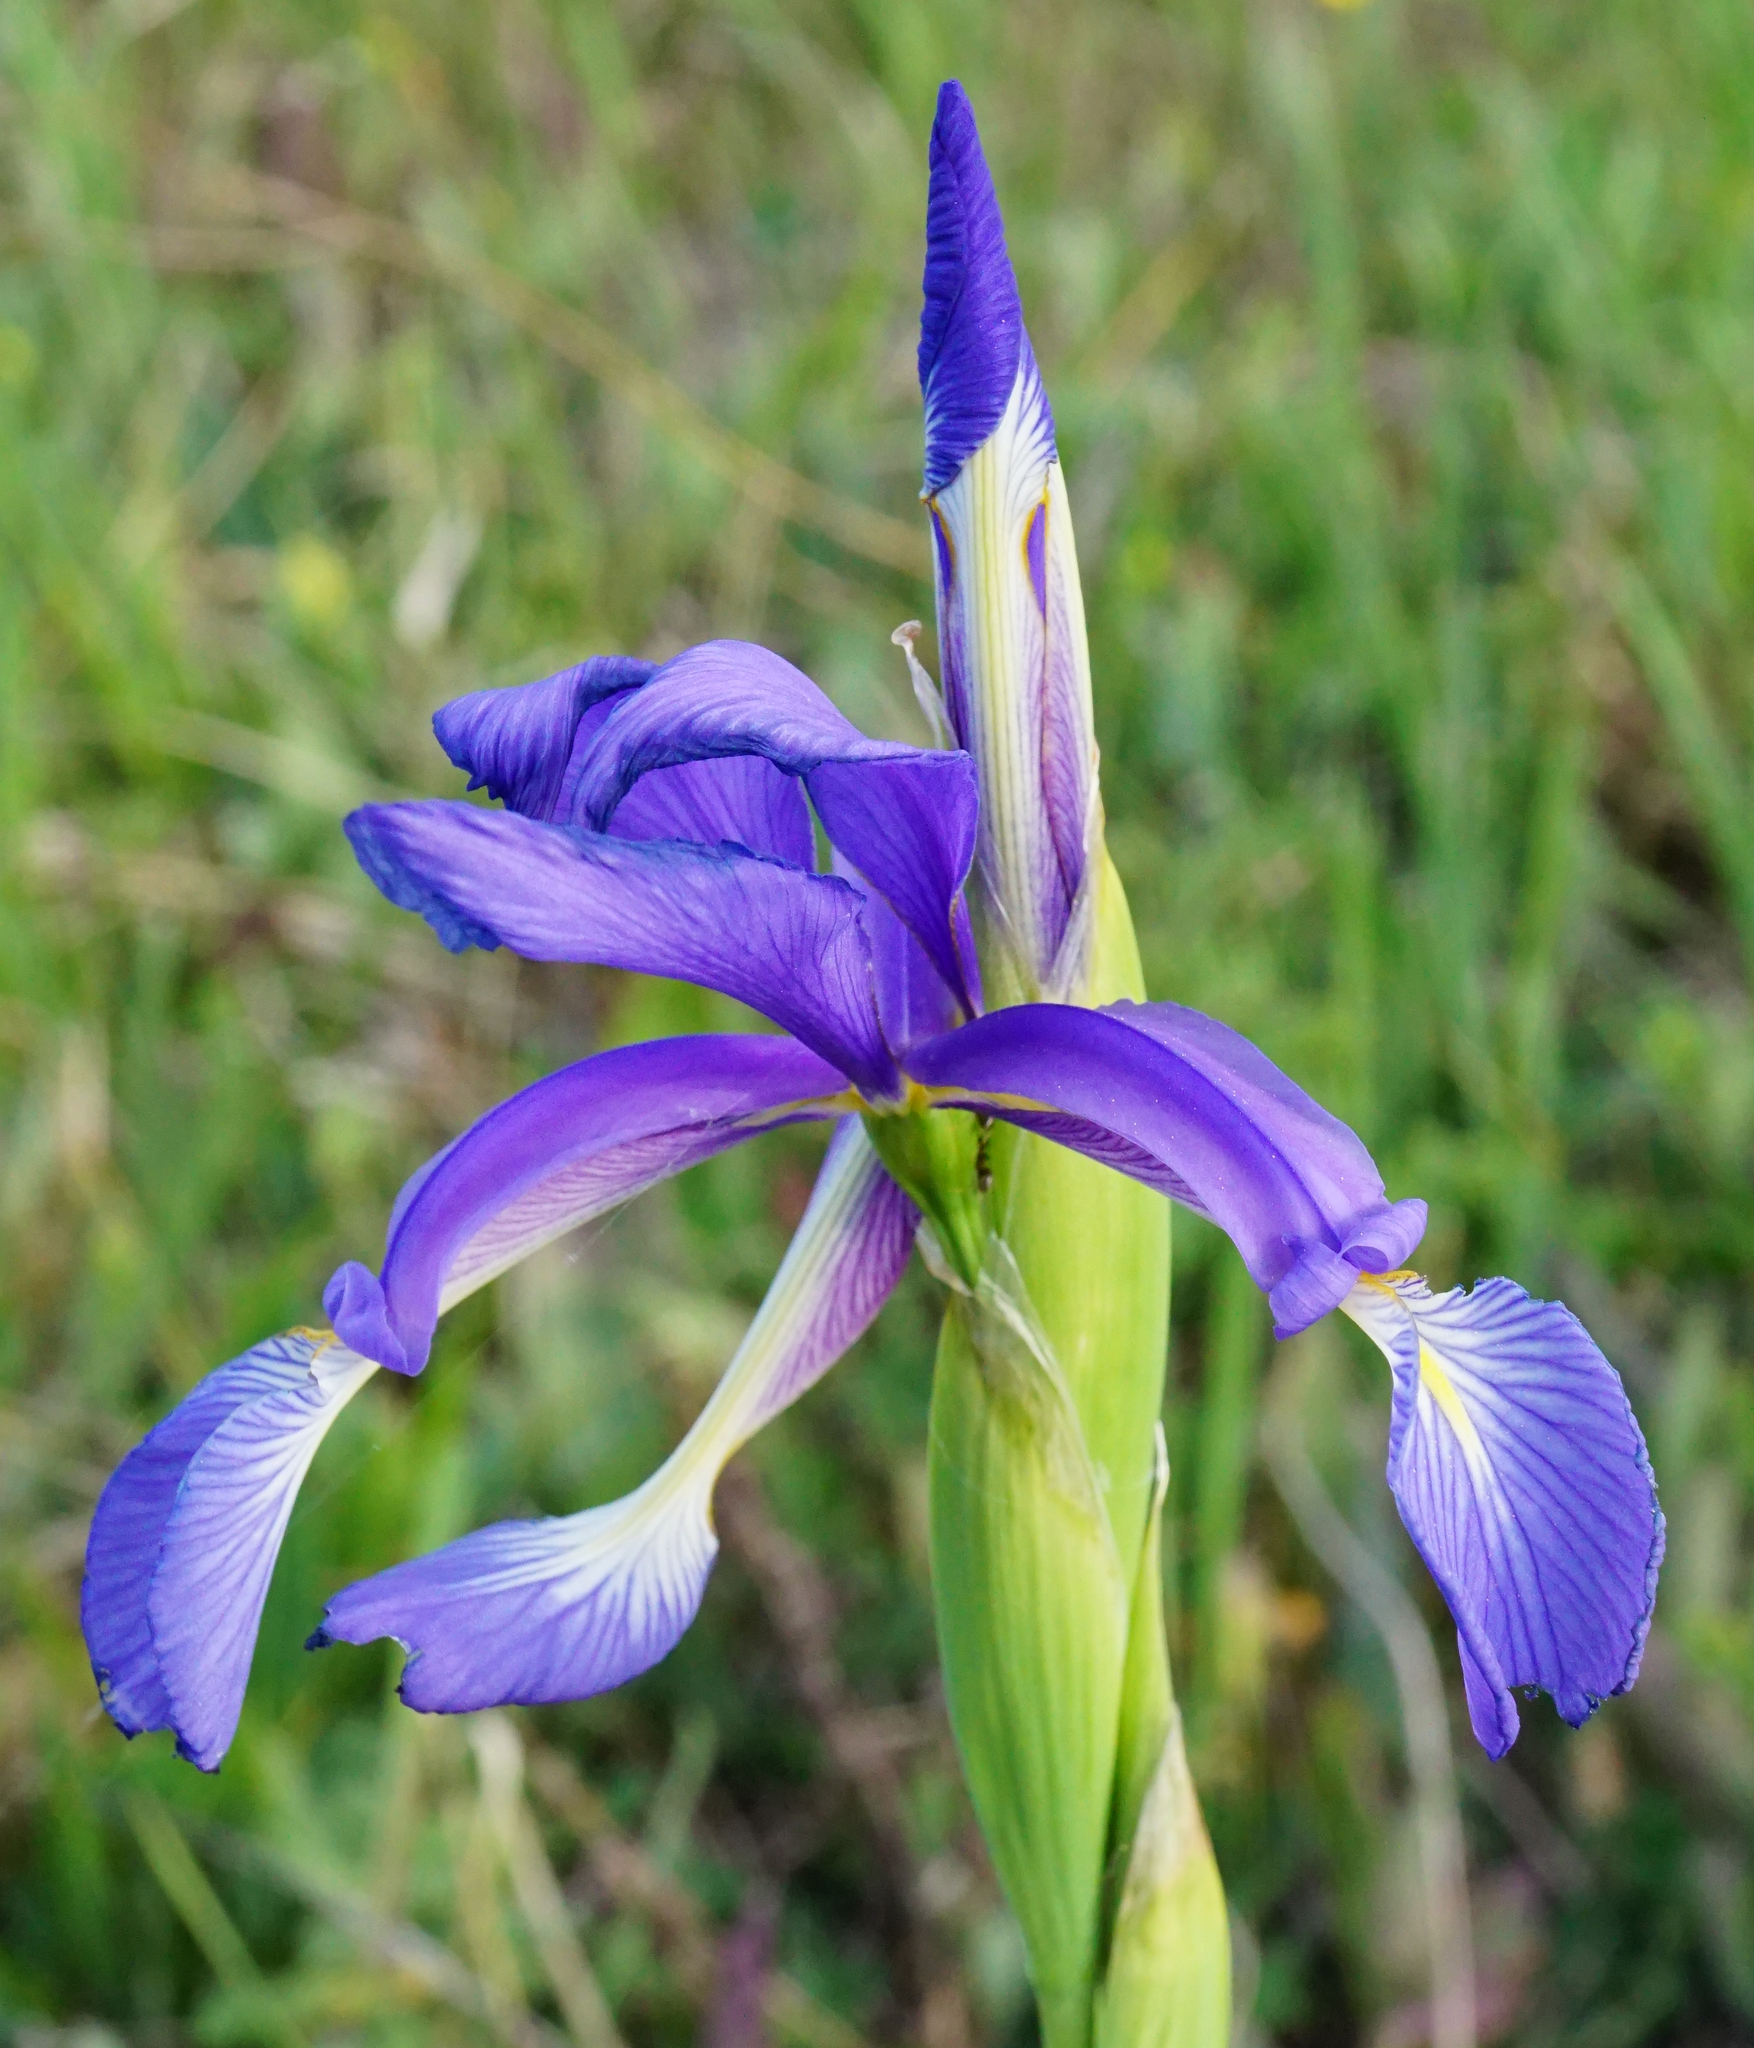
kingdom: Plantae
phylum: Tracheophyta
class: Liliopsida
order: Asparagales
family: Iridaceae
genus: Iris
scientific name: Iris spuria
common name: Blue iris
